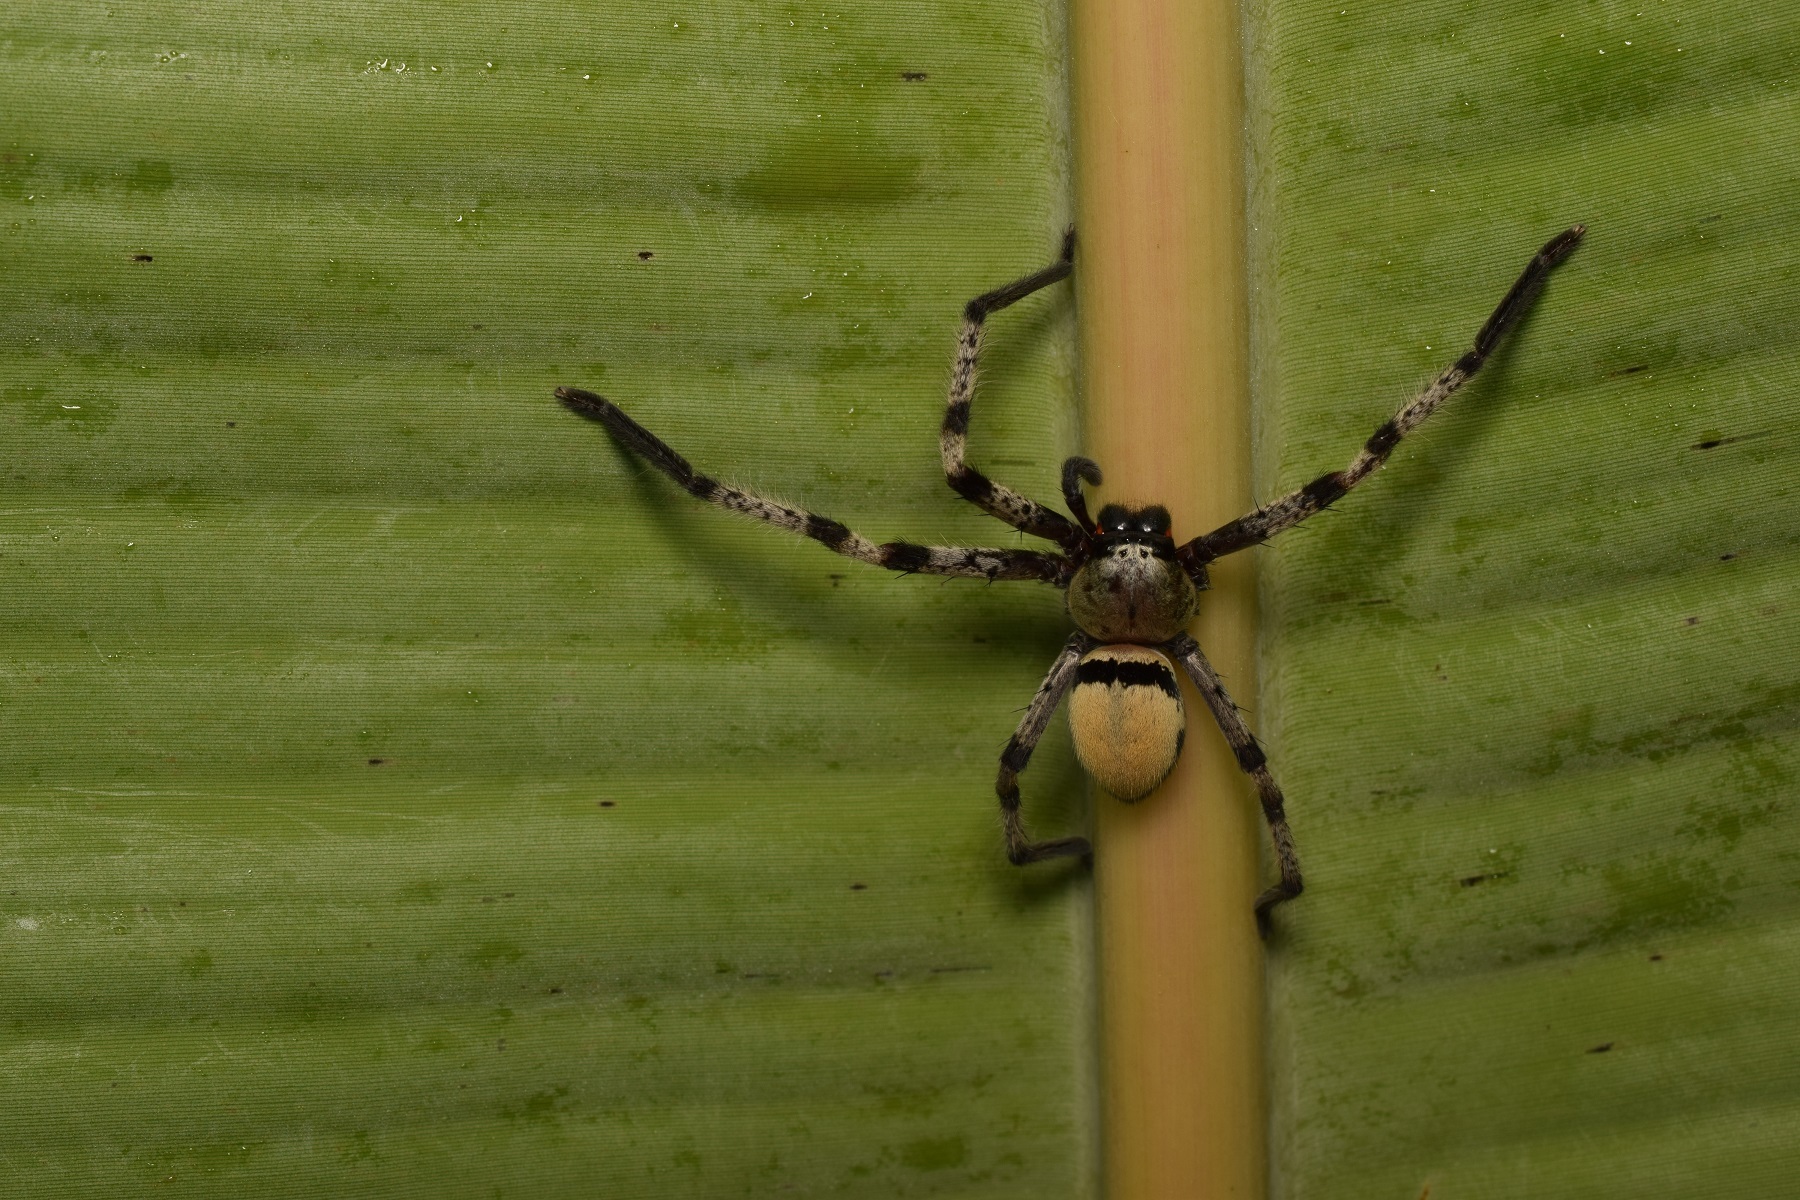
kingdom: Animalia
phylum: Arthropoda
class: Arachnida
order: Araneae
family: Sparassidae
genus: Olios
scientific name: Olios lamarcki
